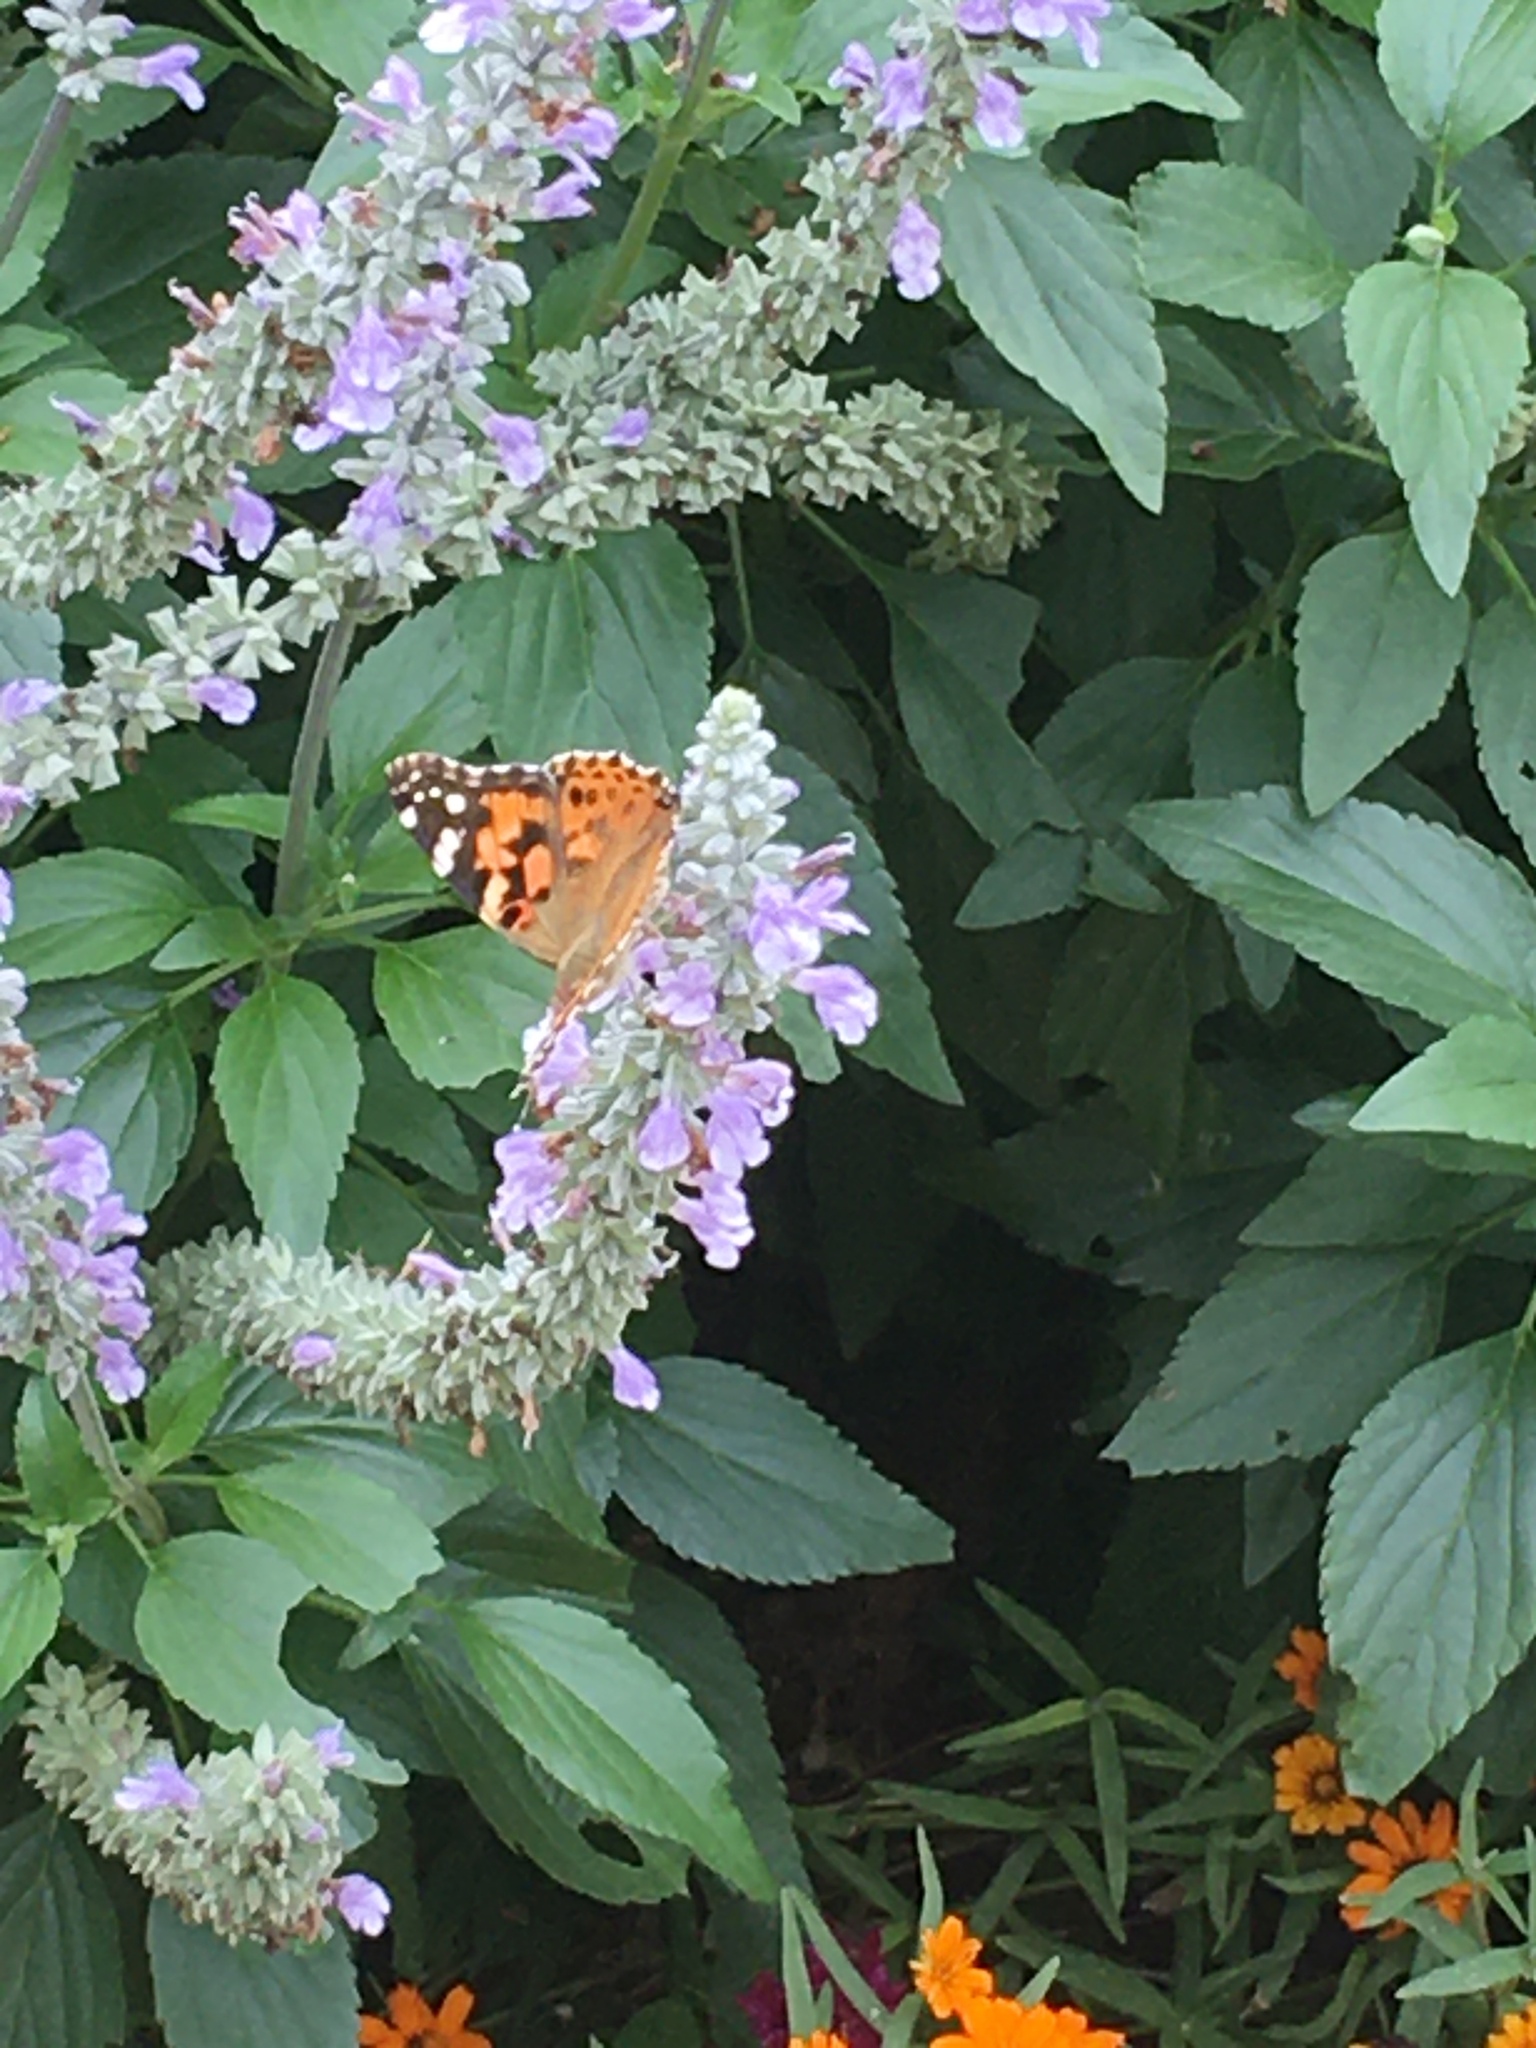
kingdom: Animalia
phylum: Arthropoda
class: Insecta
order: Lepidoptera
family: Nymphalidae
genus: Vanessa
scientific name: Vanessa cardui
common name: Painted lady
